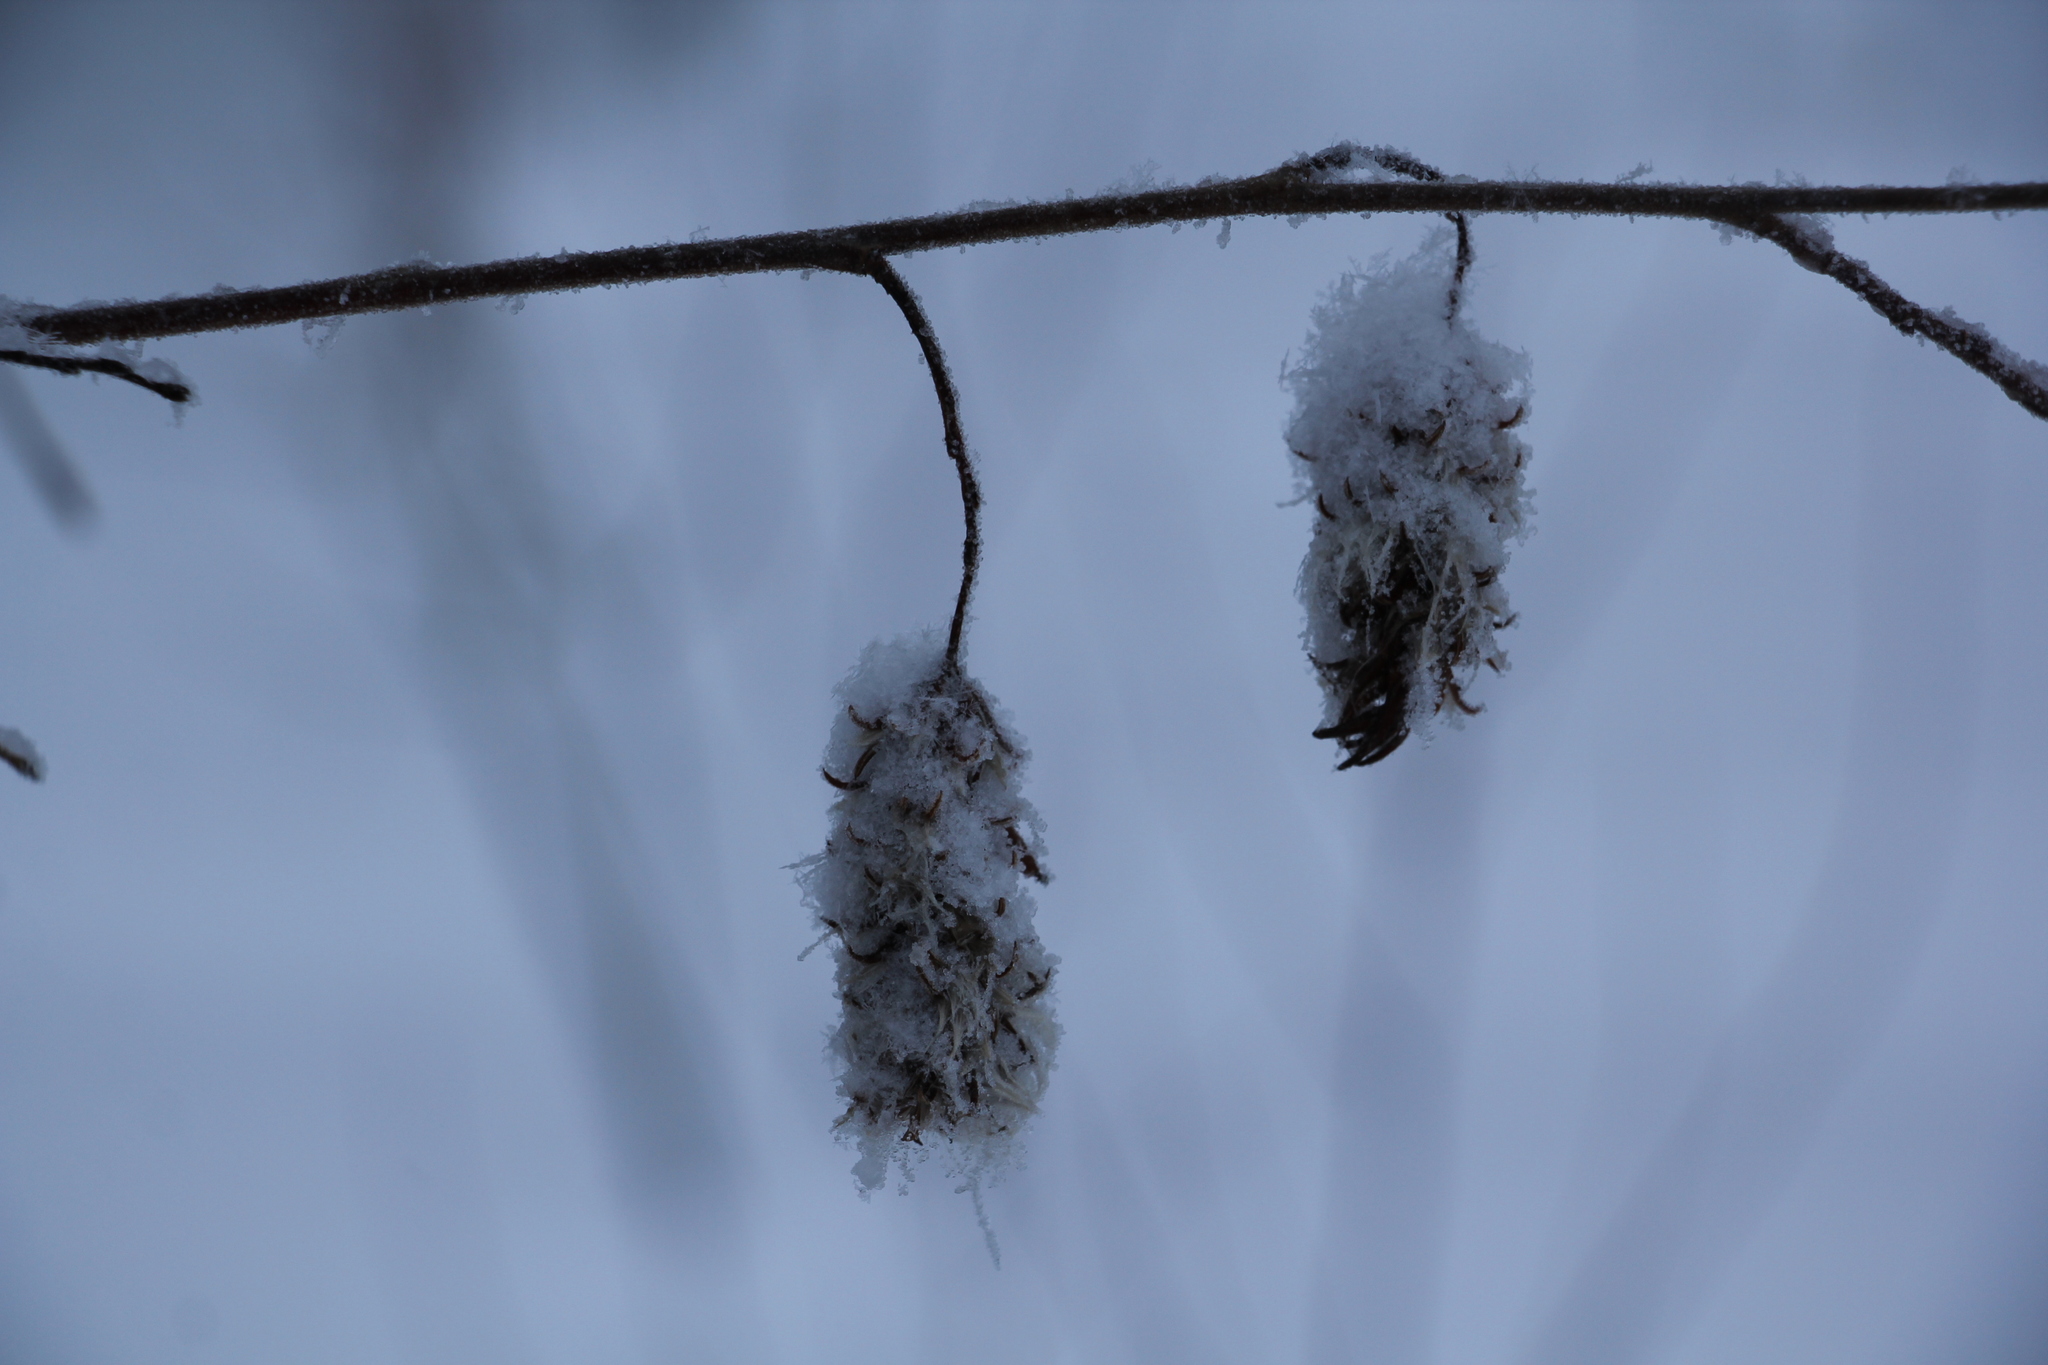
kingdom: Plantae
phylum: Tracheophyta
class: Magnoliopsida
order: Malpighiales
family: Salicaceae
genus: Salix
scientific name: Salix pentandra
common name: Bay willow
